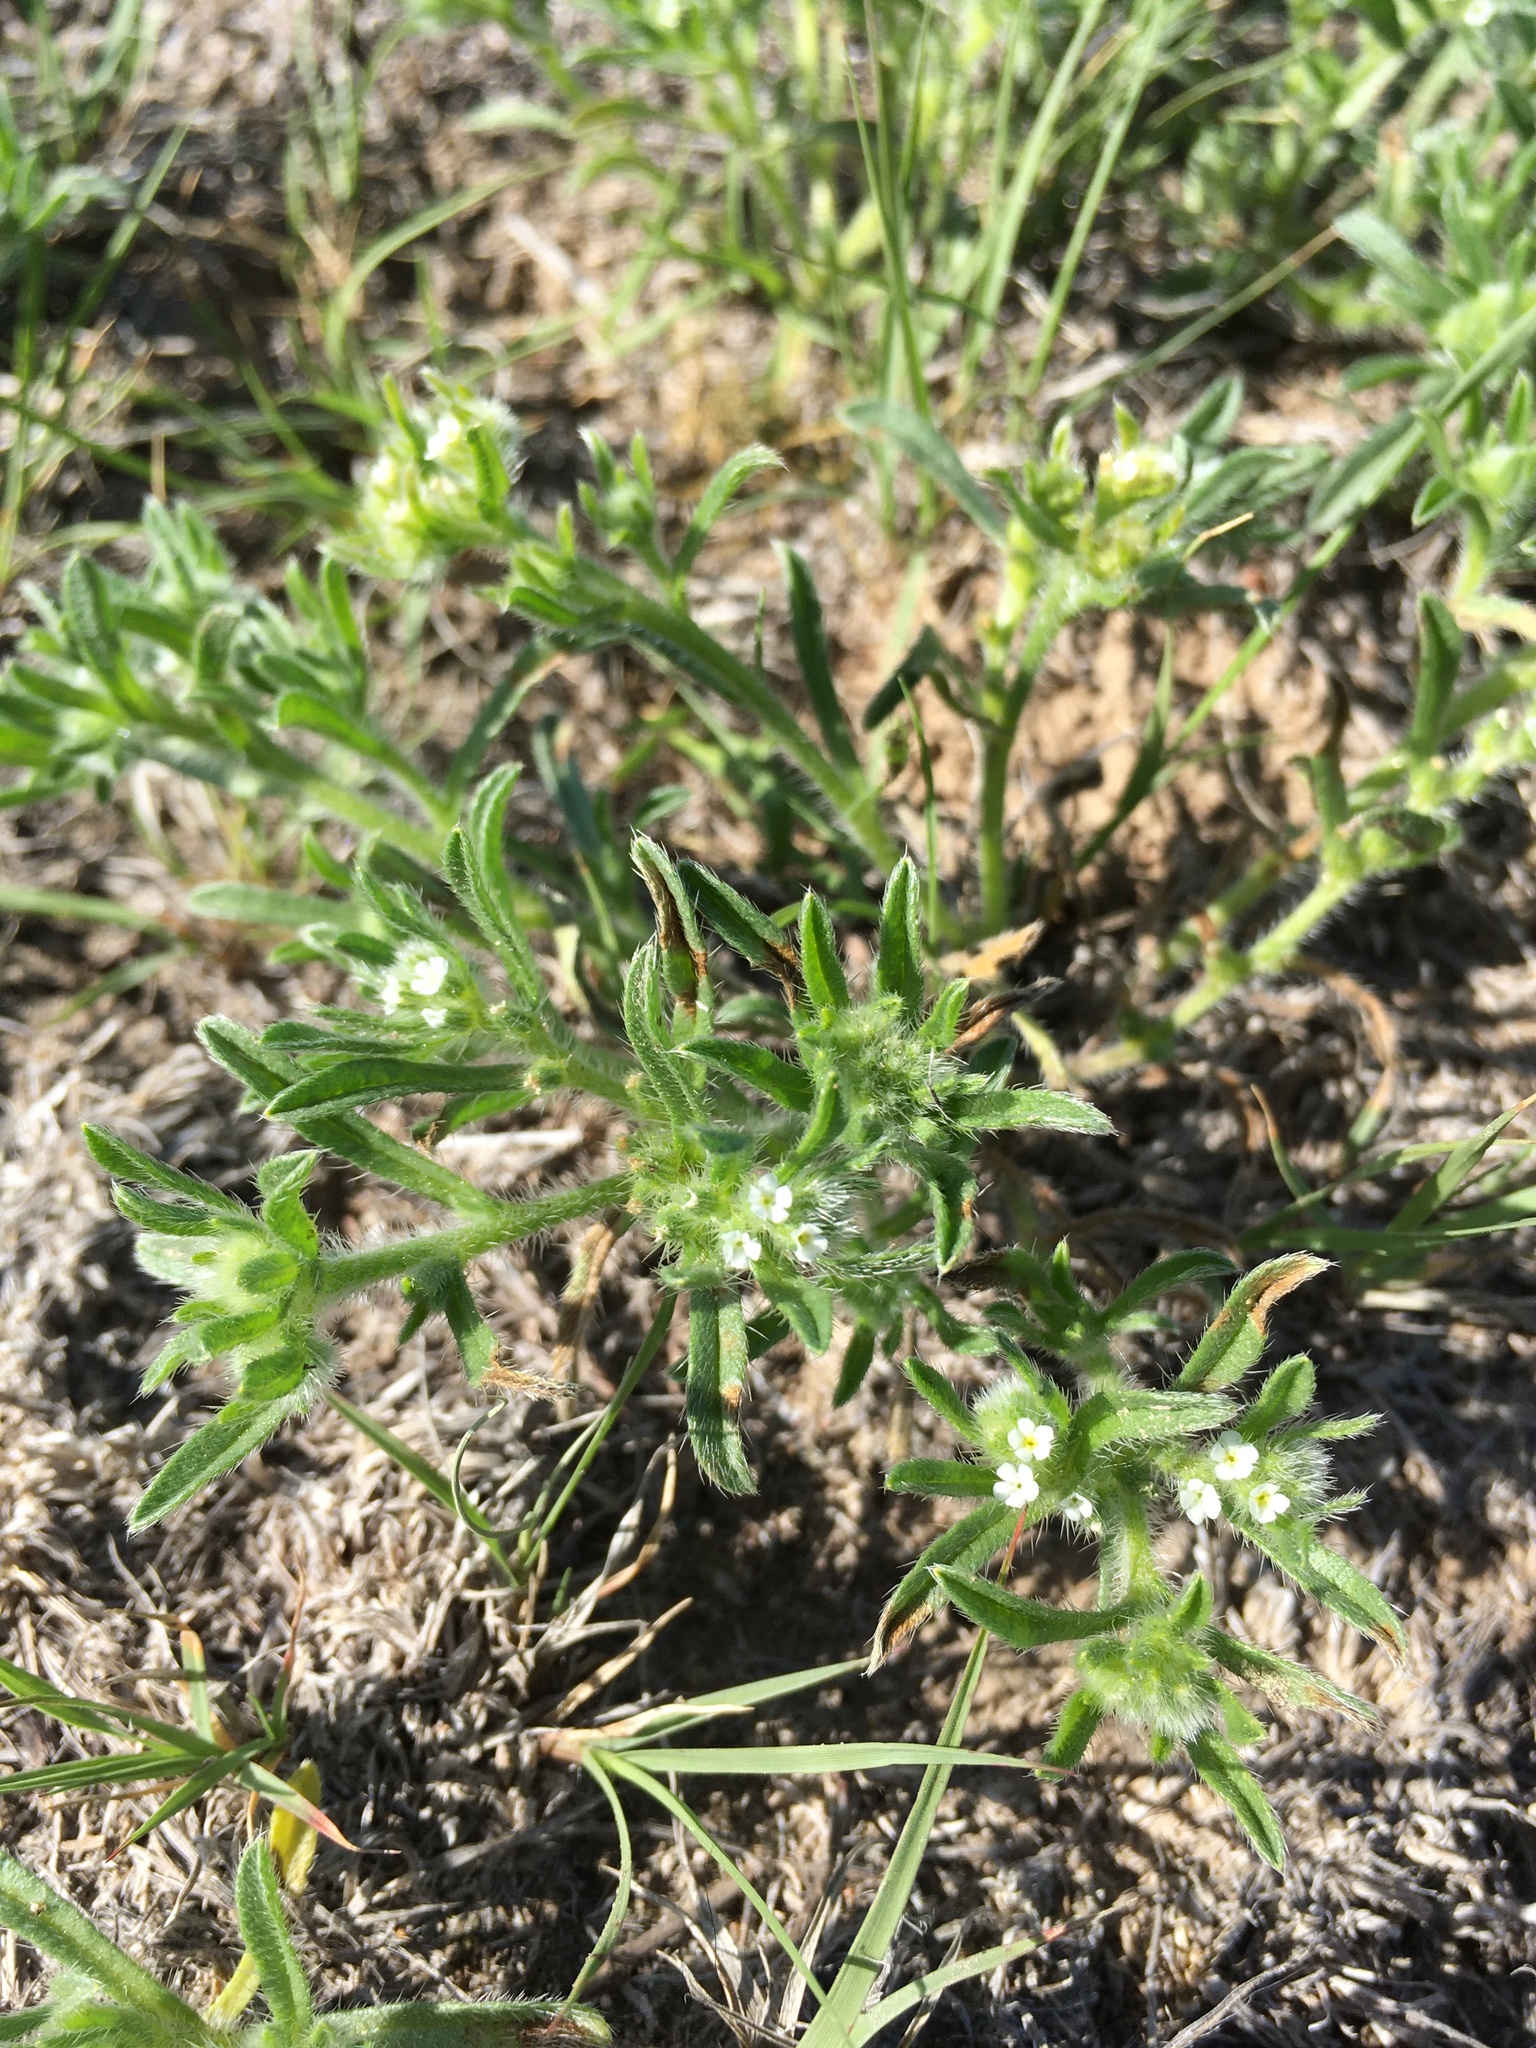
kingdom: Plantae
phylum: Tracheophyta
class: Magnoliopsida
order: Boraginales
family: Boraginaceae
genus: Cryptantha
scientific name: Cryptantha minima
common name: Little cat's-eye
